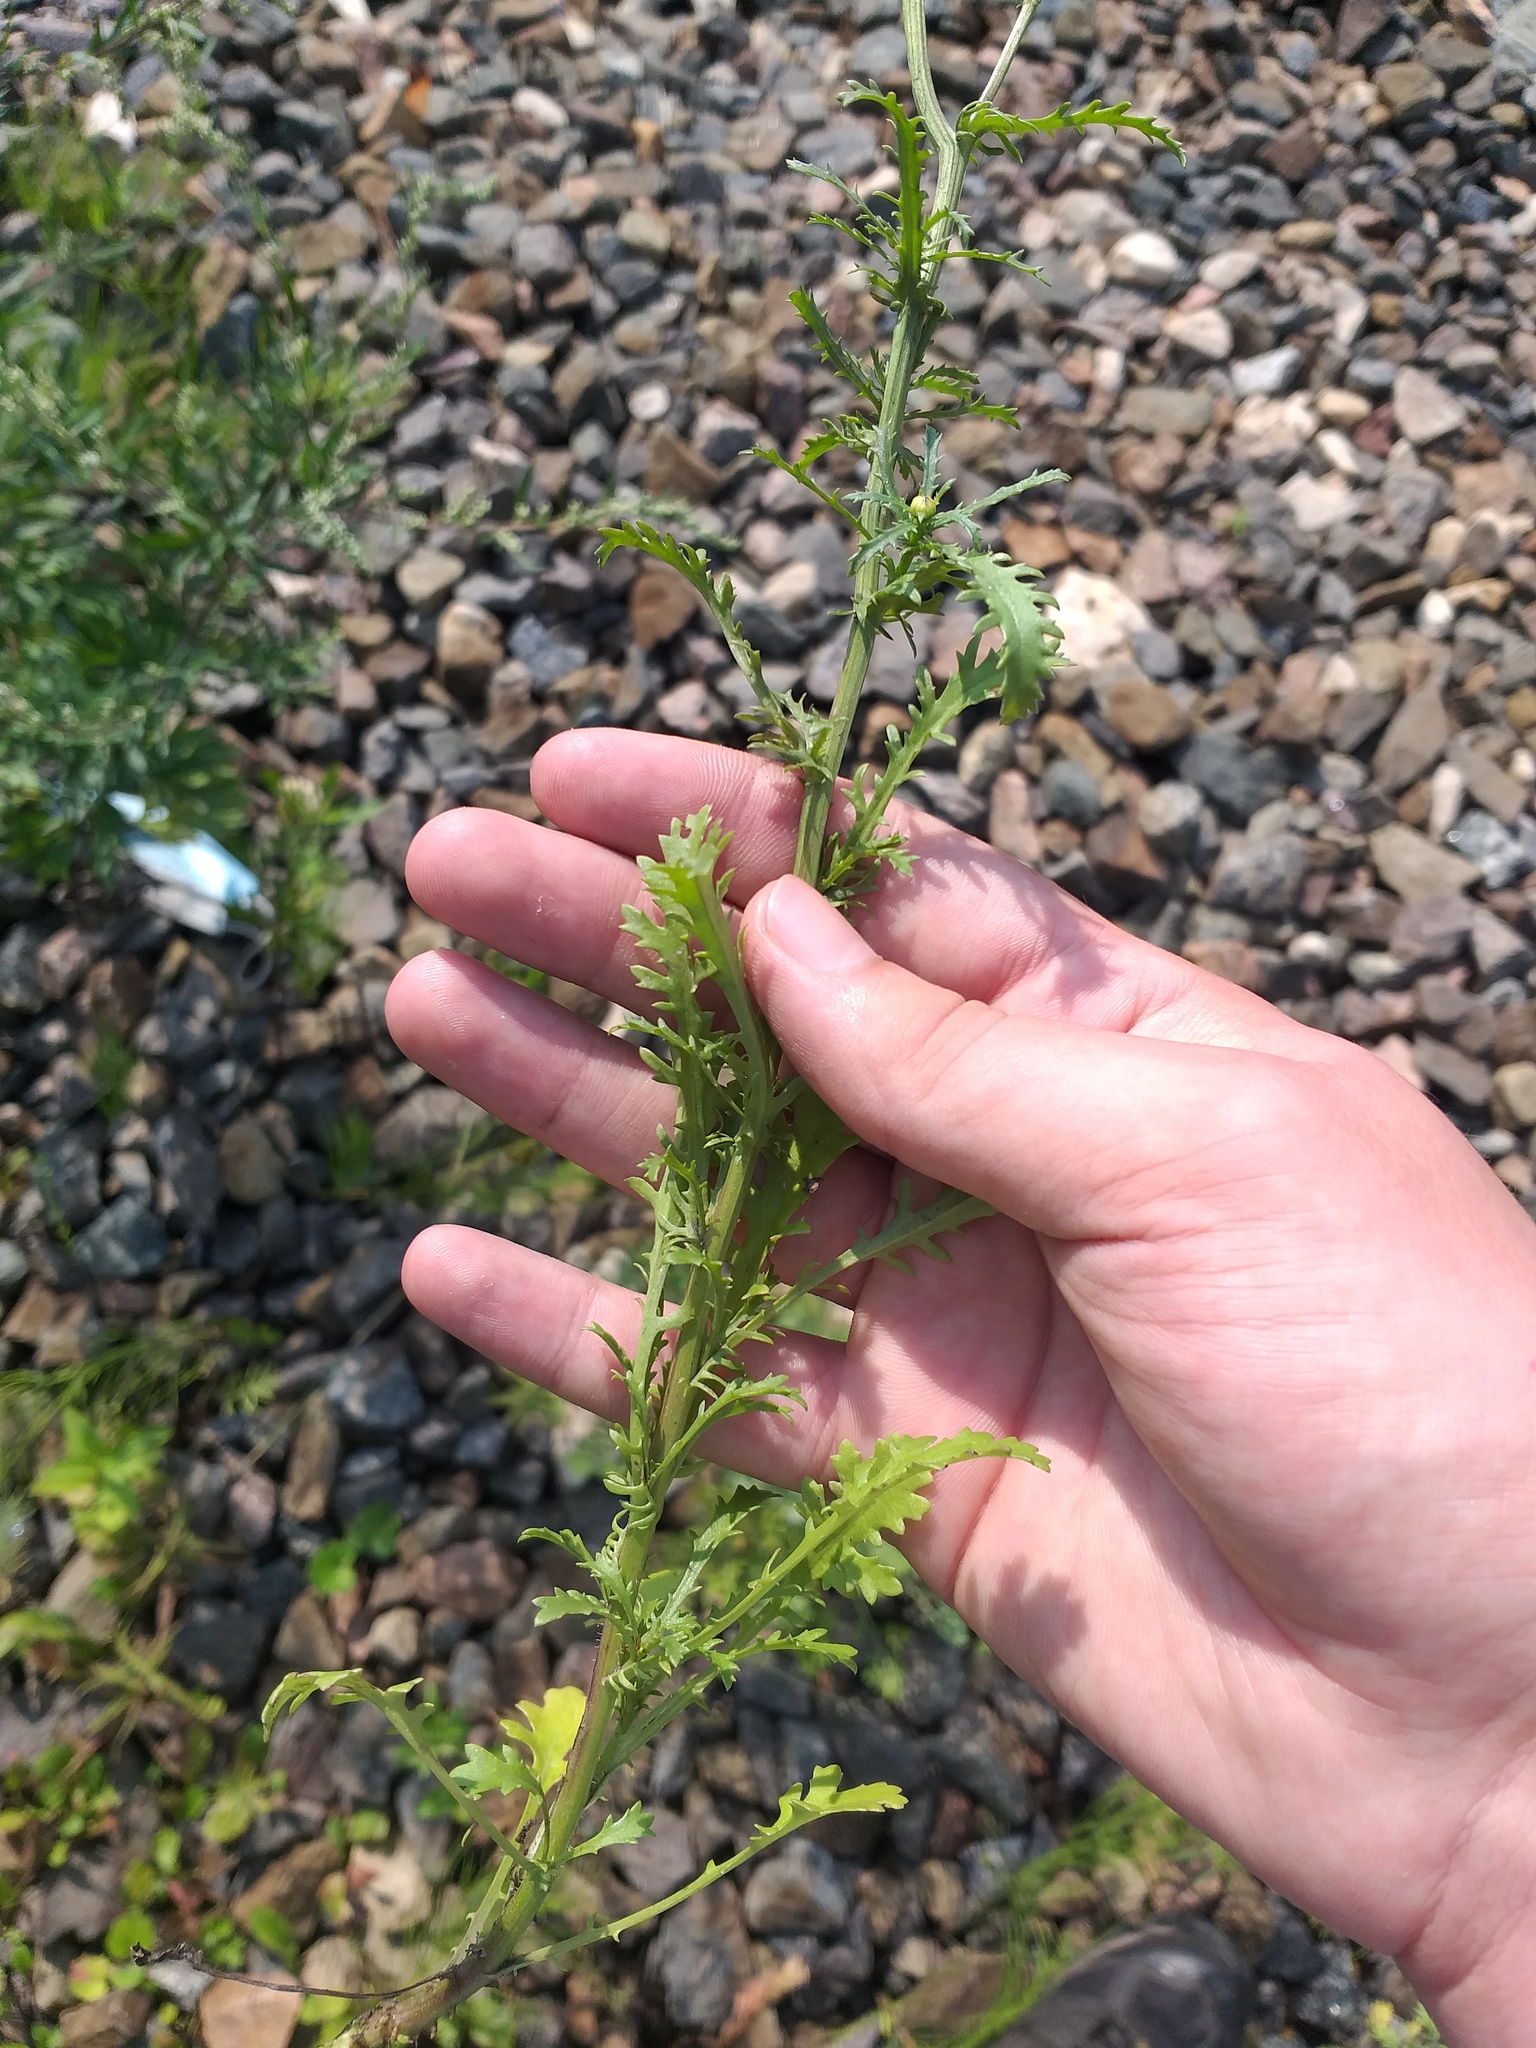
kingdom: Plantae
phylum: Tracheophyta
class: Magnoliopsida
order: Asterales
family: Asteraceae
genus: Leucanthemum
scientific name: Leucanthemum vulgare
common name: Oxeye daisy
